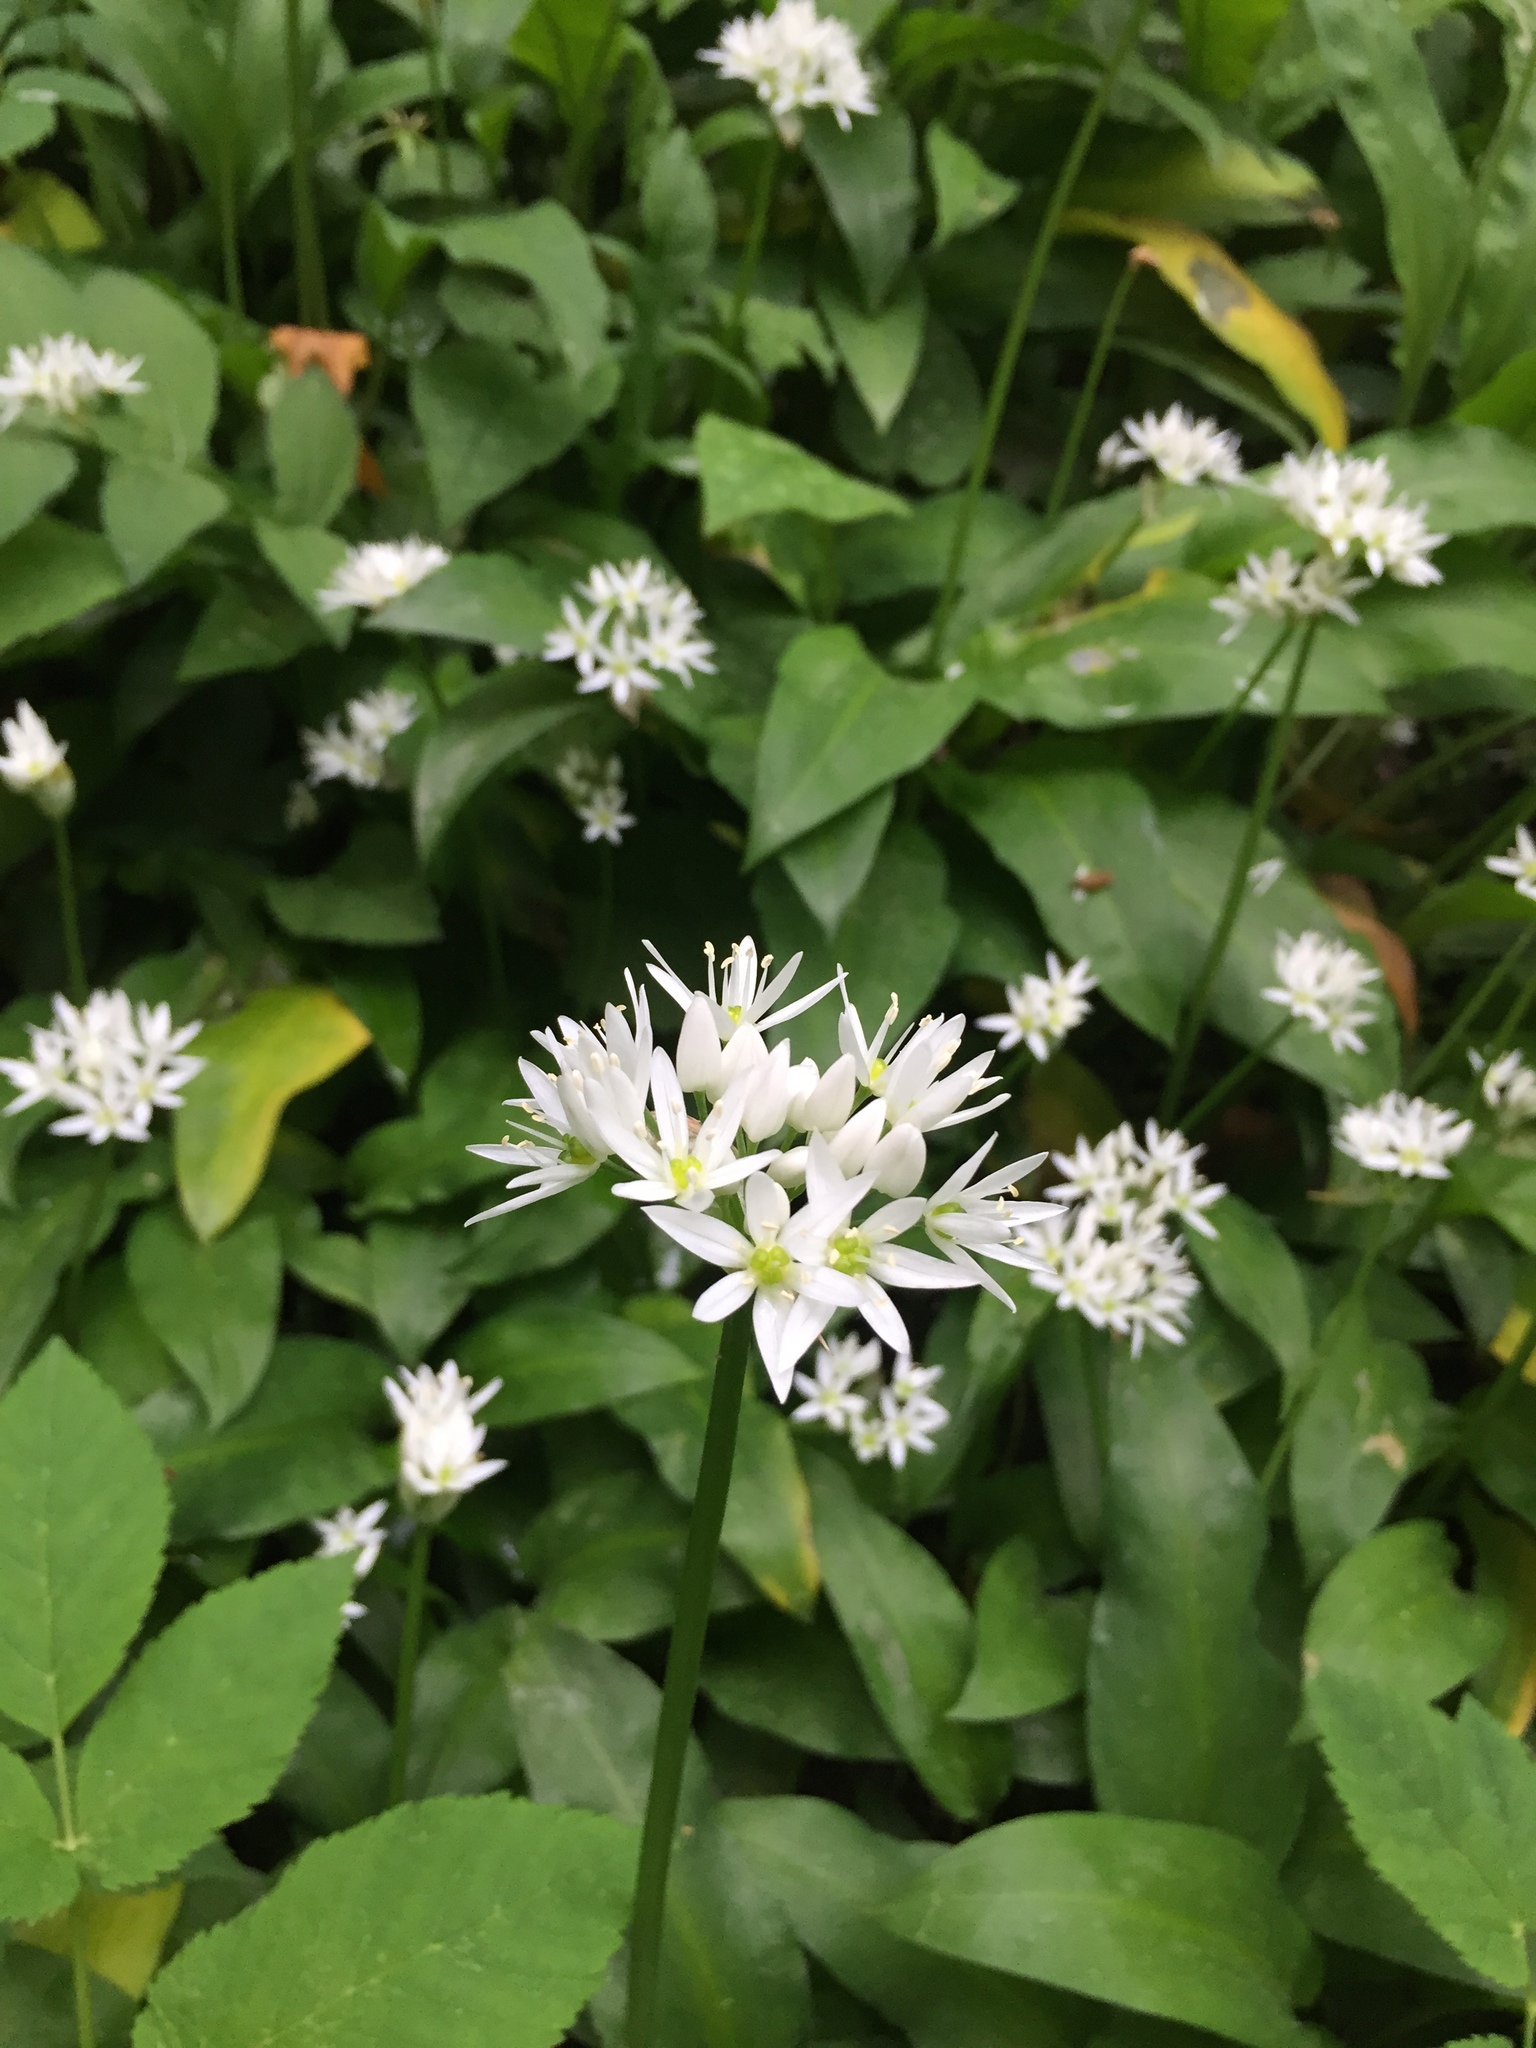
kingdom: Plantae
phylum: Tracheophyta
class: Liliopsida
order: Asparagales
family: Amaryllidaceae
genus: Allium
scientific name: Allium ursinum
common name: Ramsons
